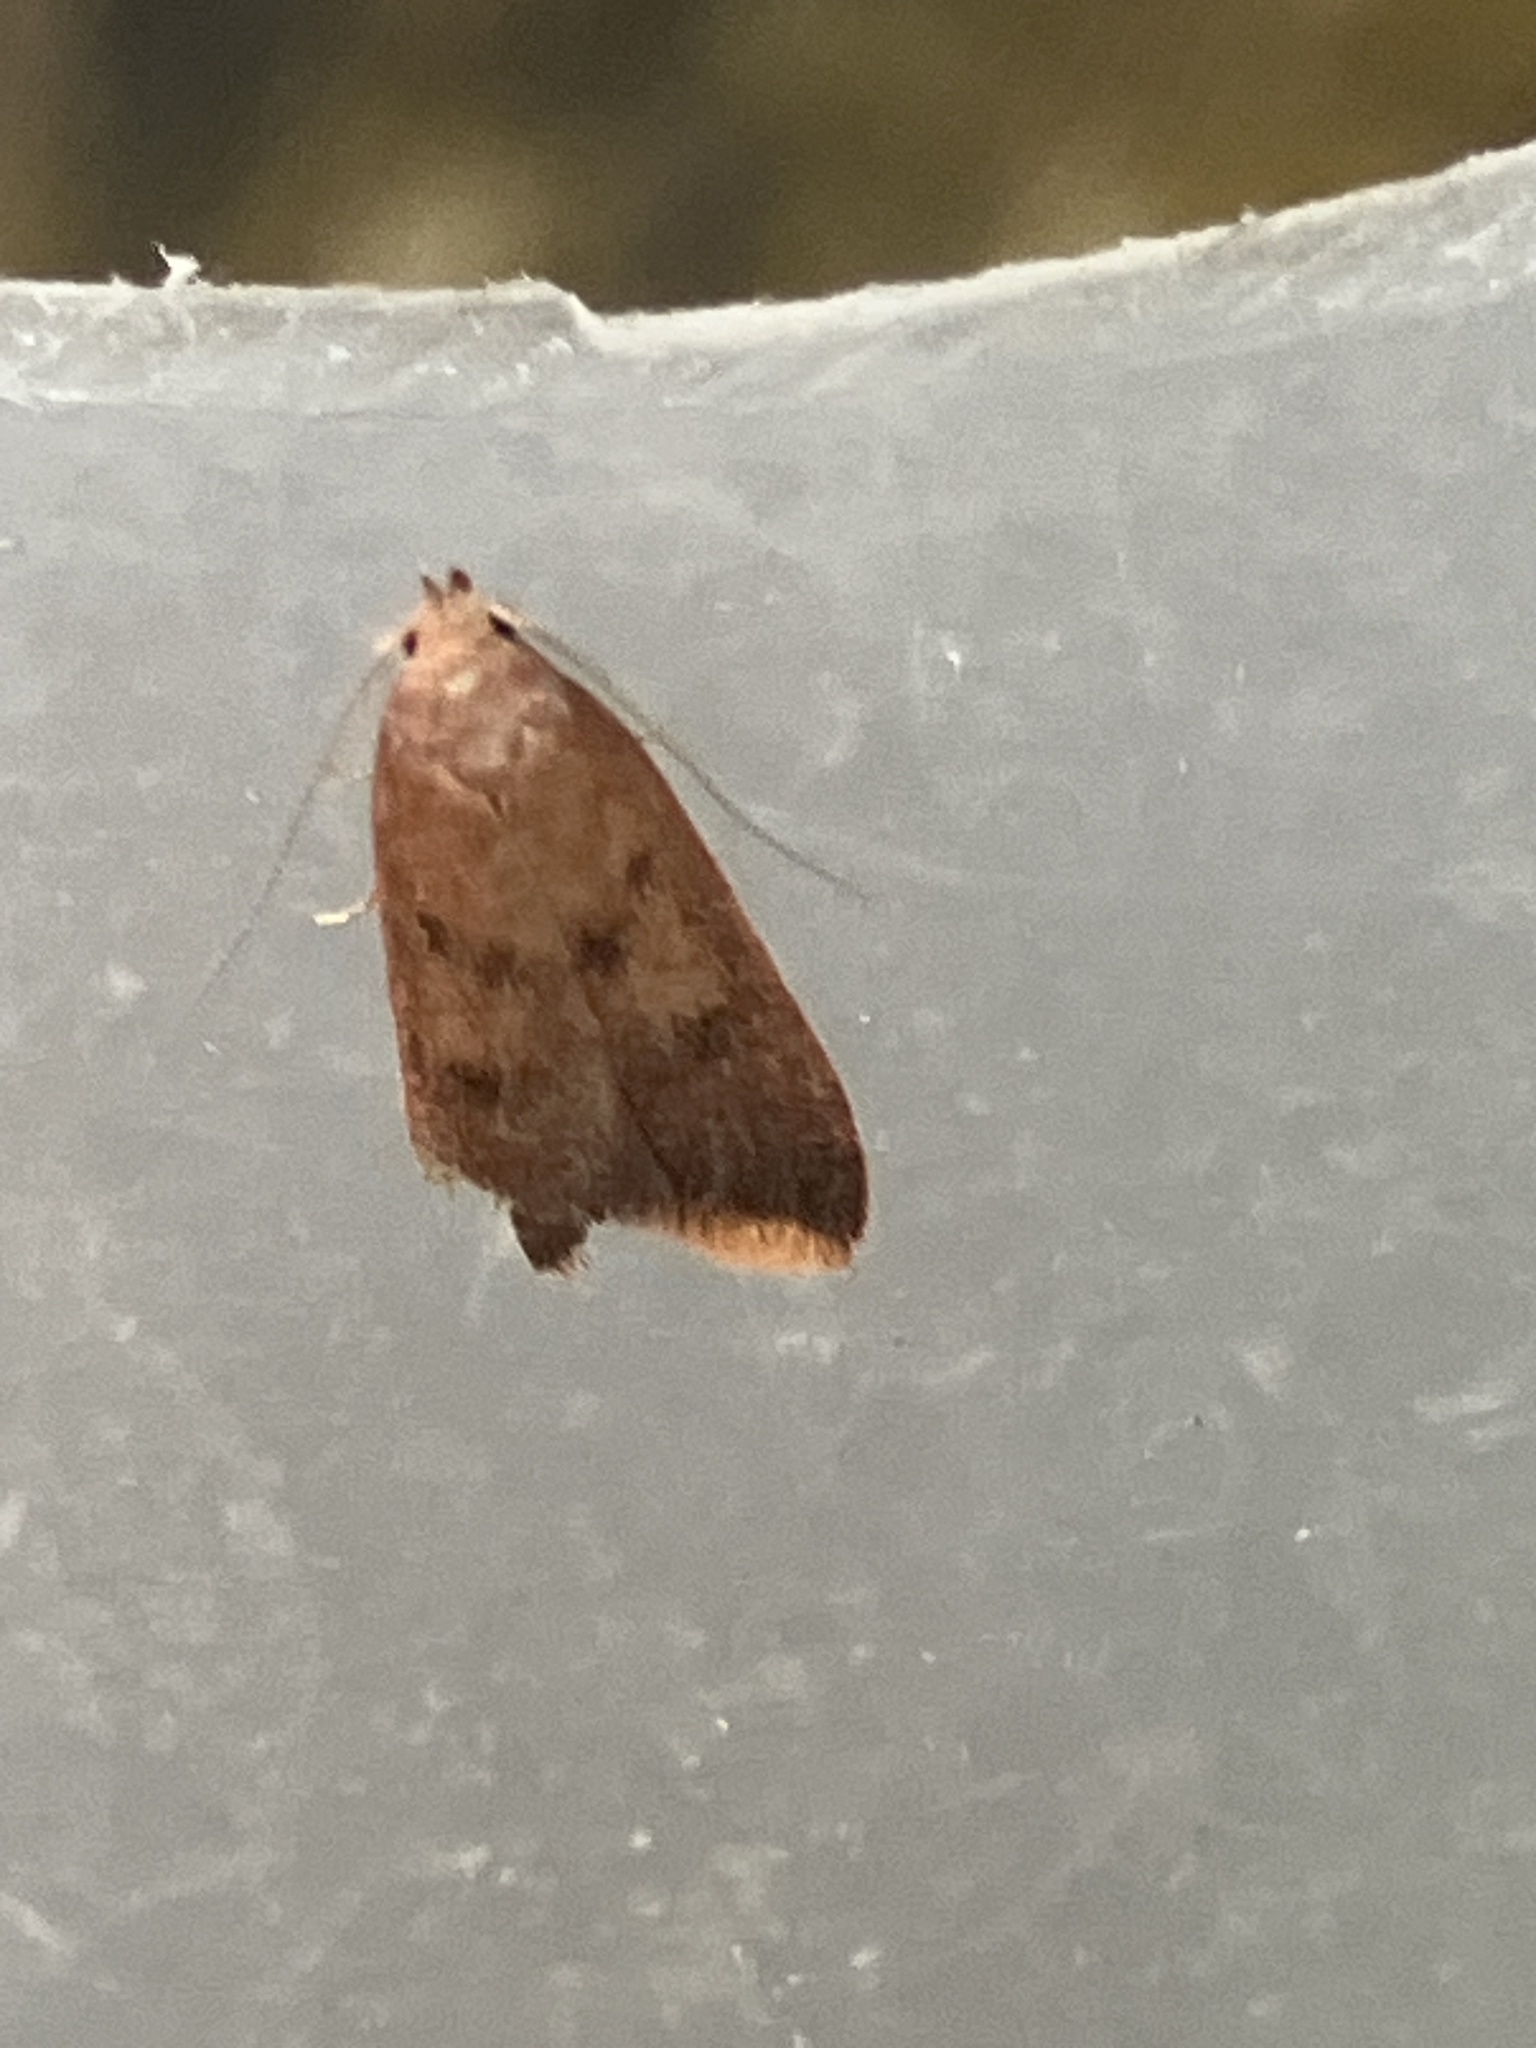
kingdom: Animalia
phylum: Arthropoda
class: Insecta
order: Lepidoptera
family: Oecophoridae
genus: Tachystola
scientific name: Tachystola acroxantha
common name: Ruddy streak
